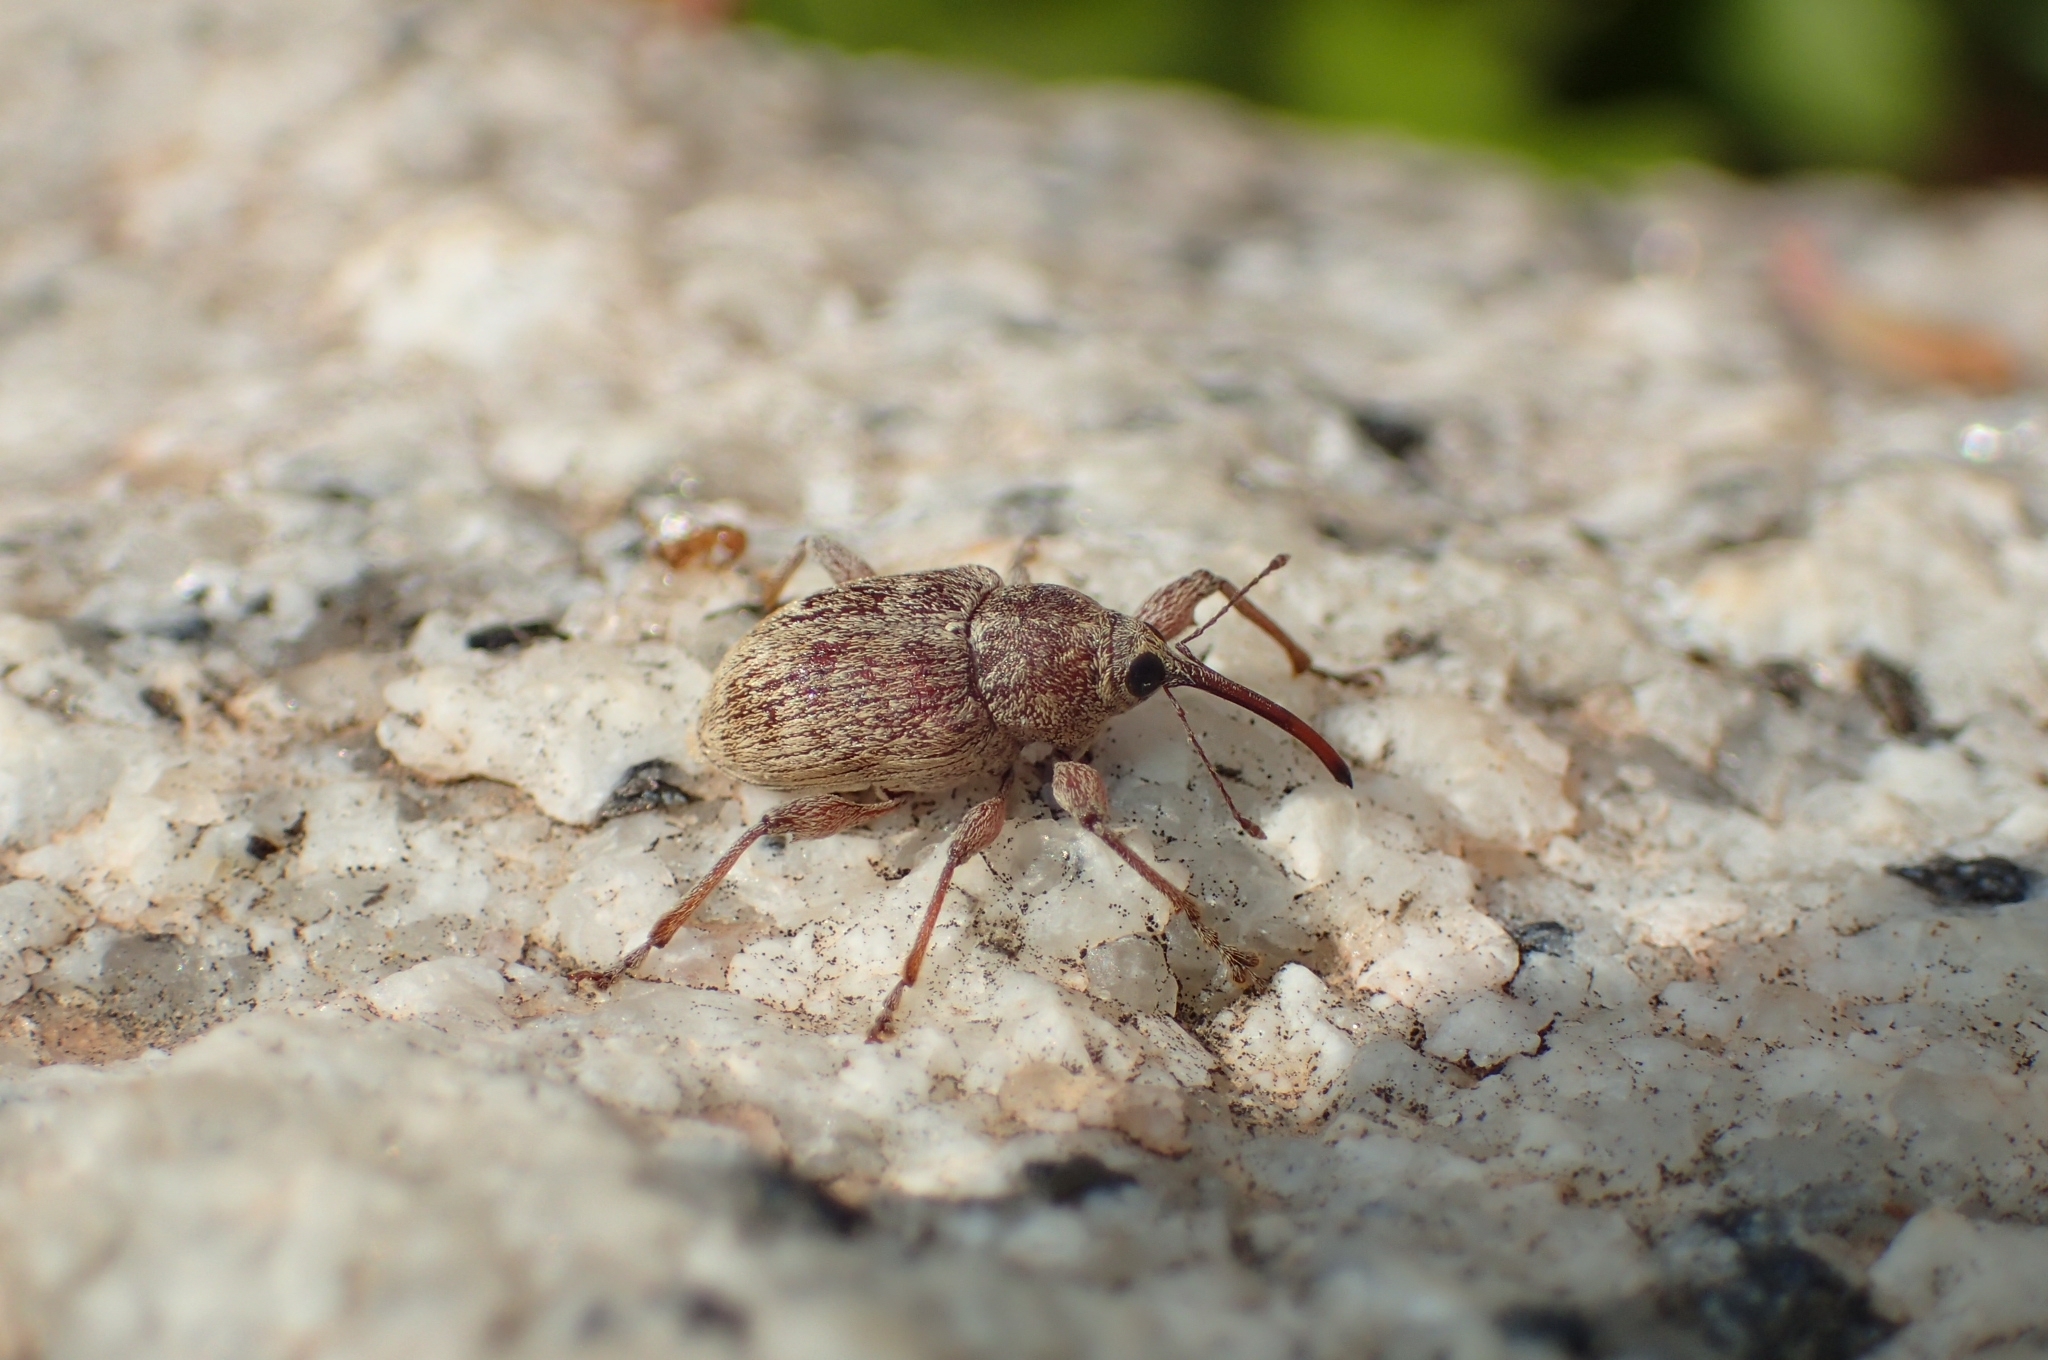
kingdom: Animalia
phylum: Arthropoda
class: Insecta
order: Coleoptera
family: Curculionidae
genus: Curculio
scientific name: Curculio elephas
